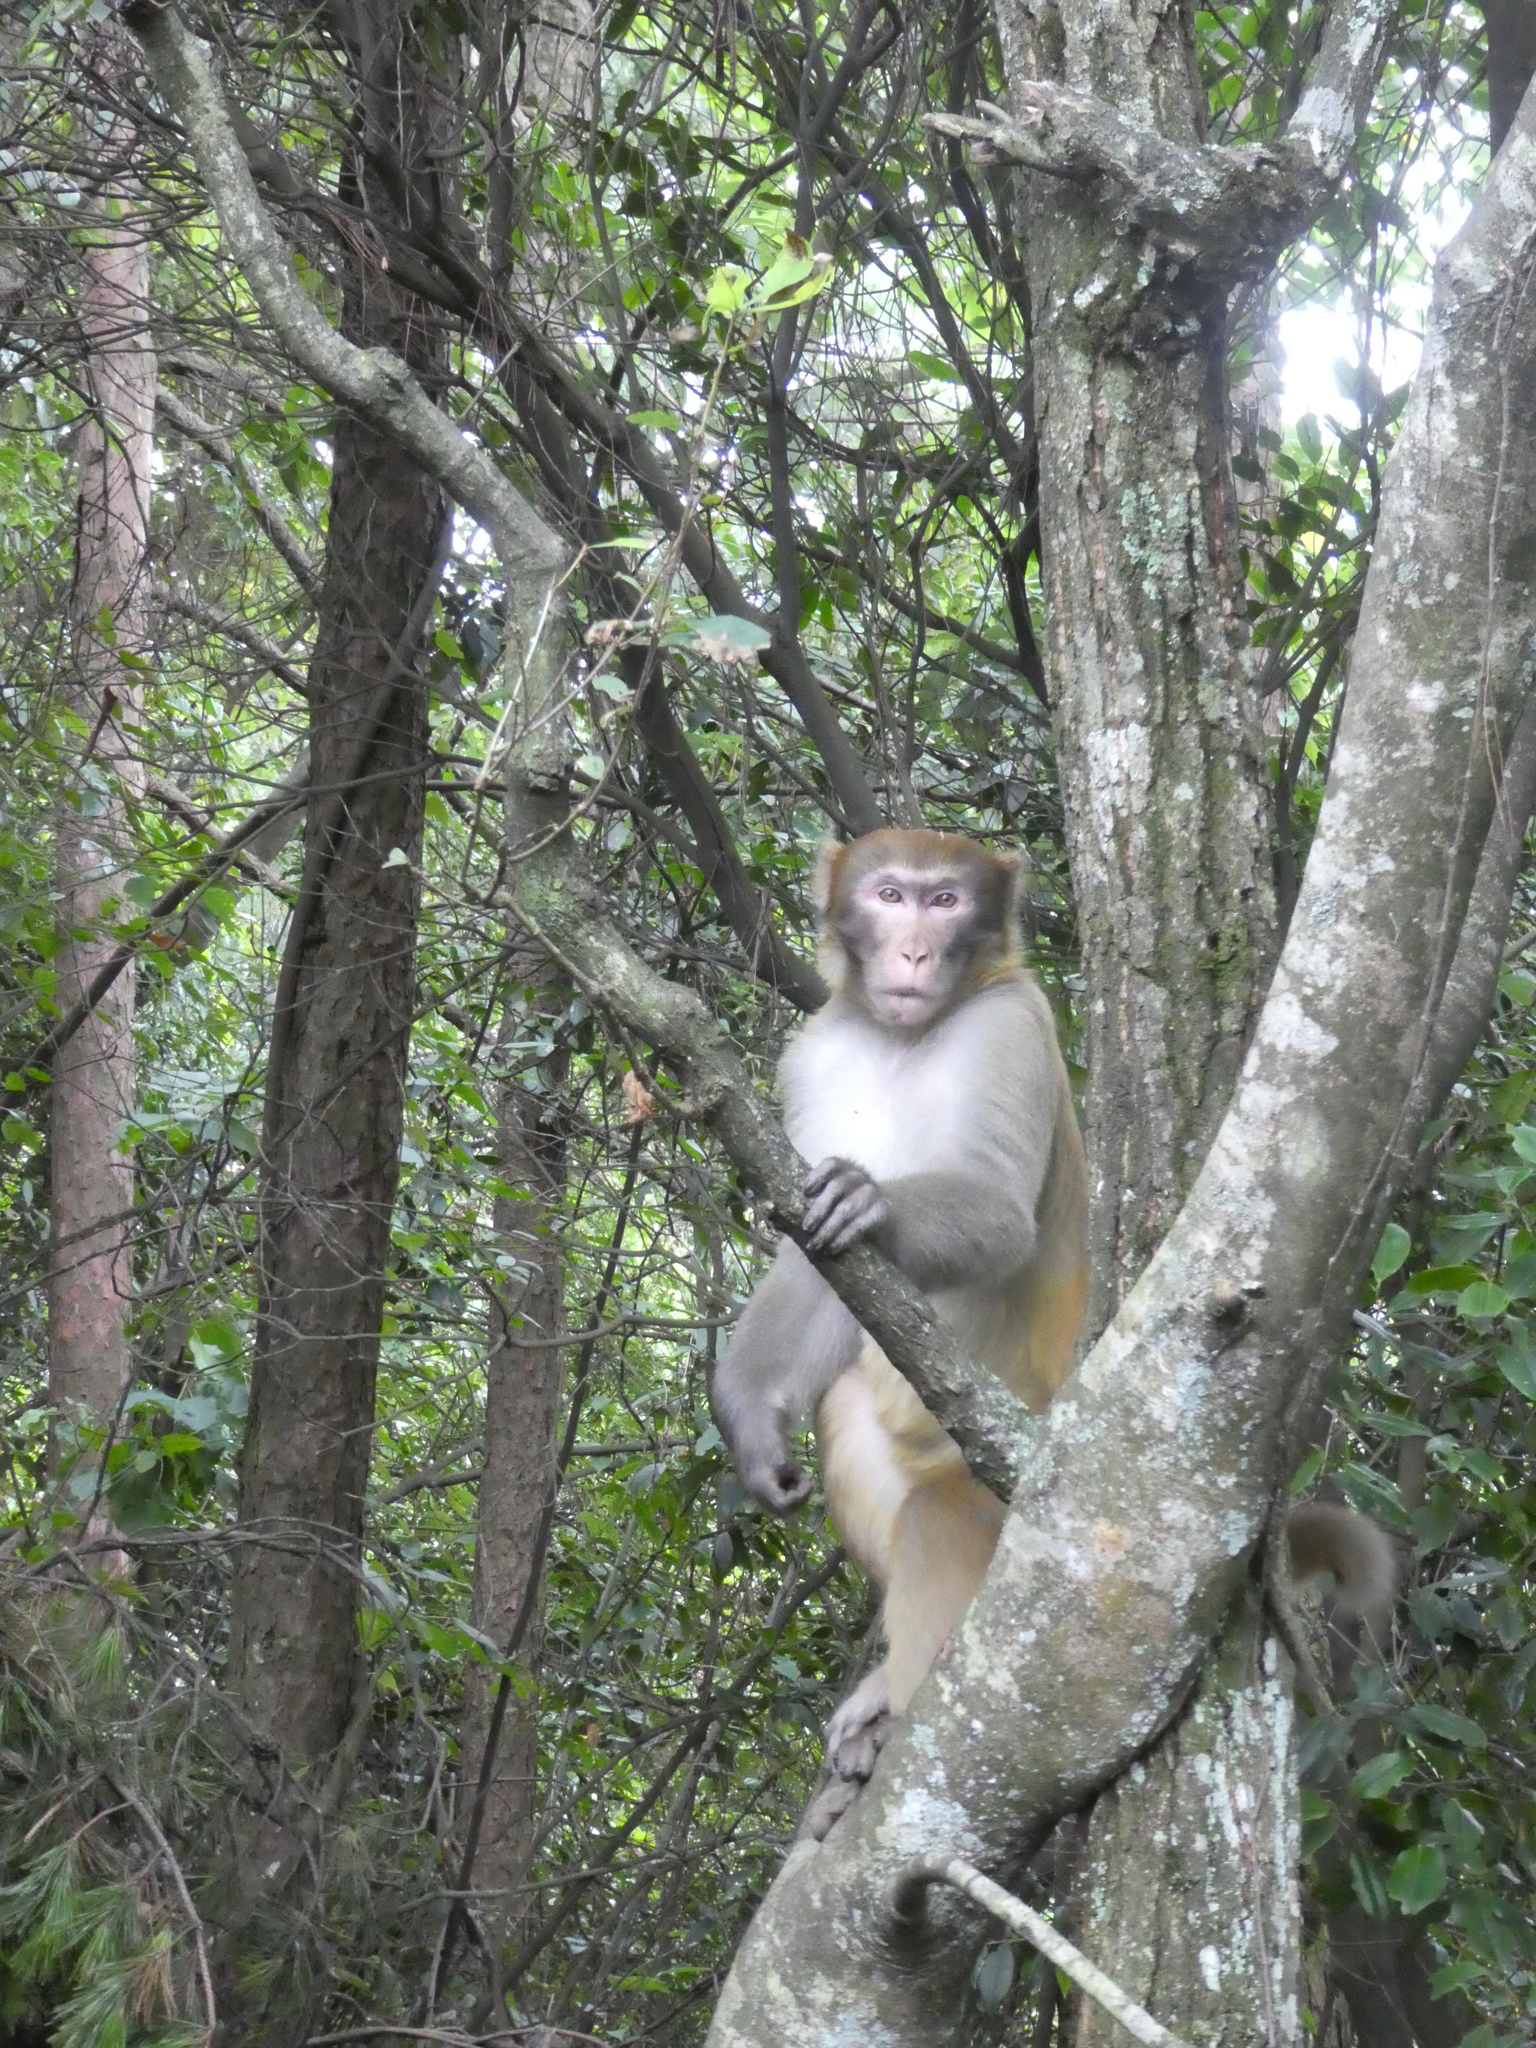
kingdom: Animalia
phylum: Chordata
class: Mammalia
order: Primates
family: Cercopithecidae
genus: Macaca
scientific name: Macaca mulatta
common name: Rhesus monkey
